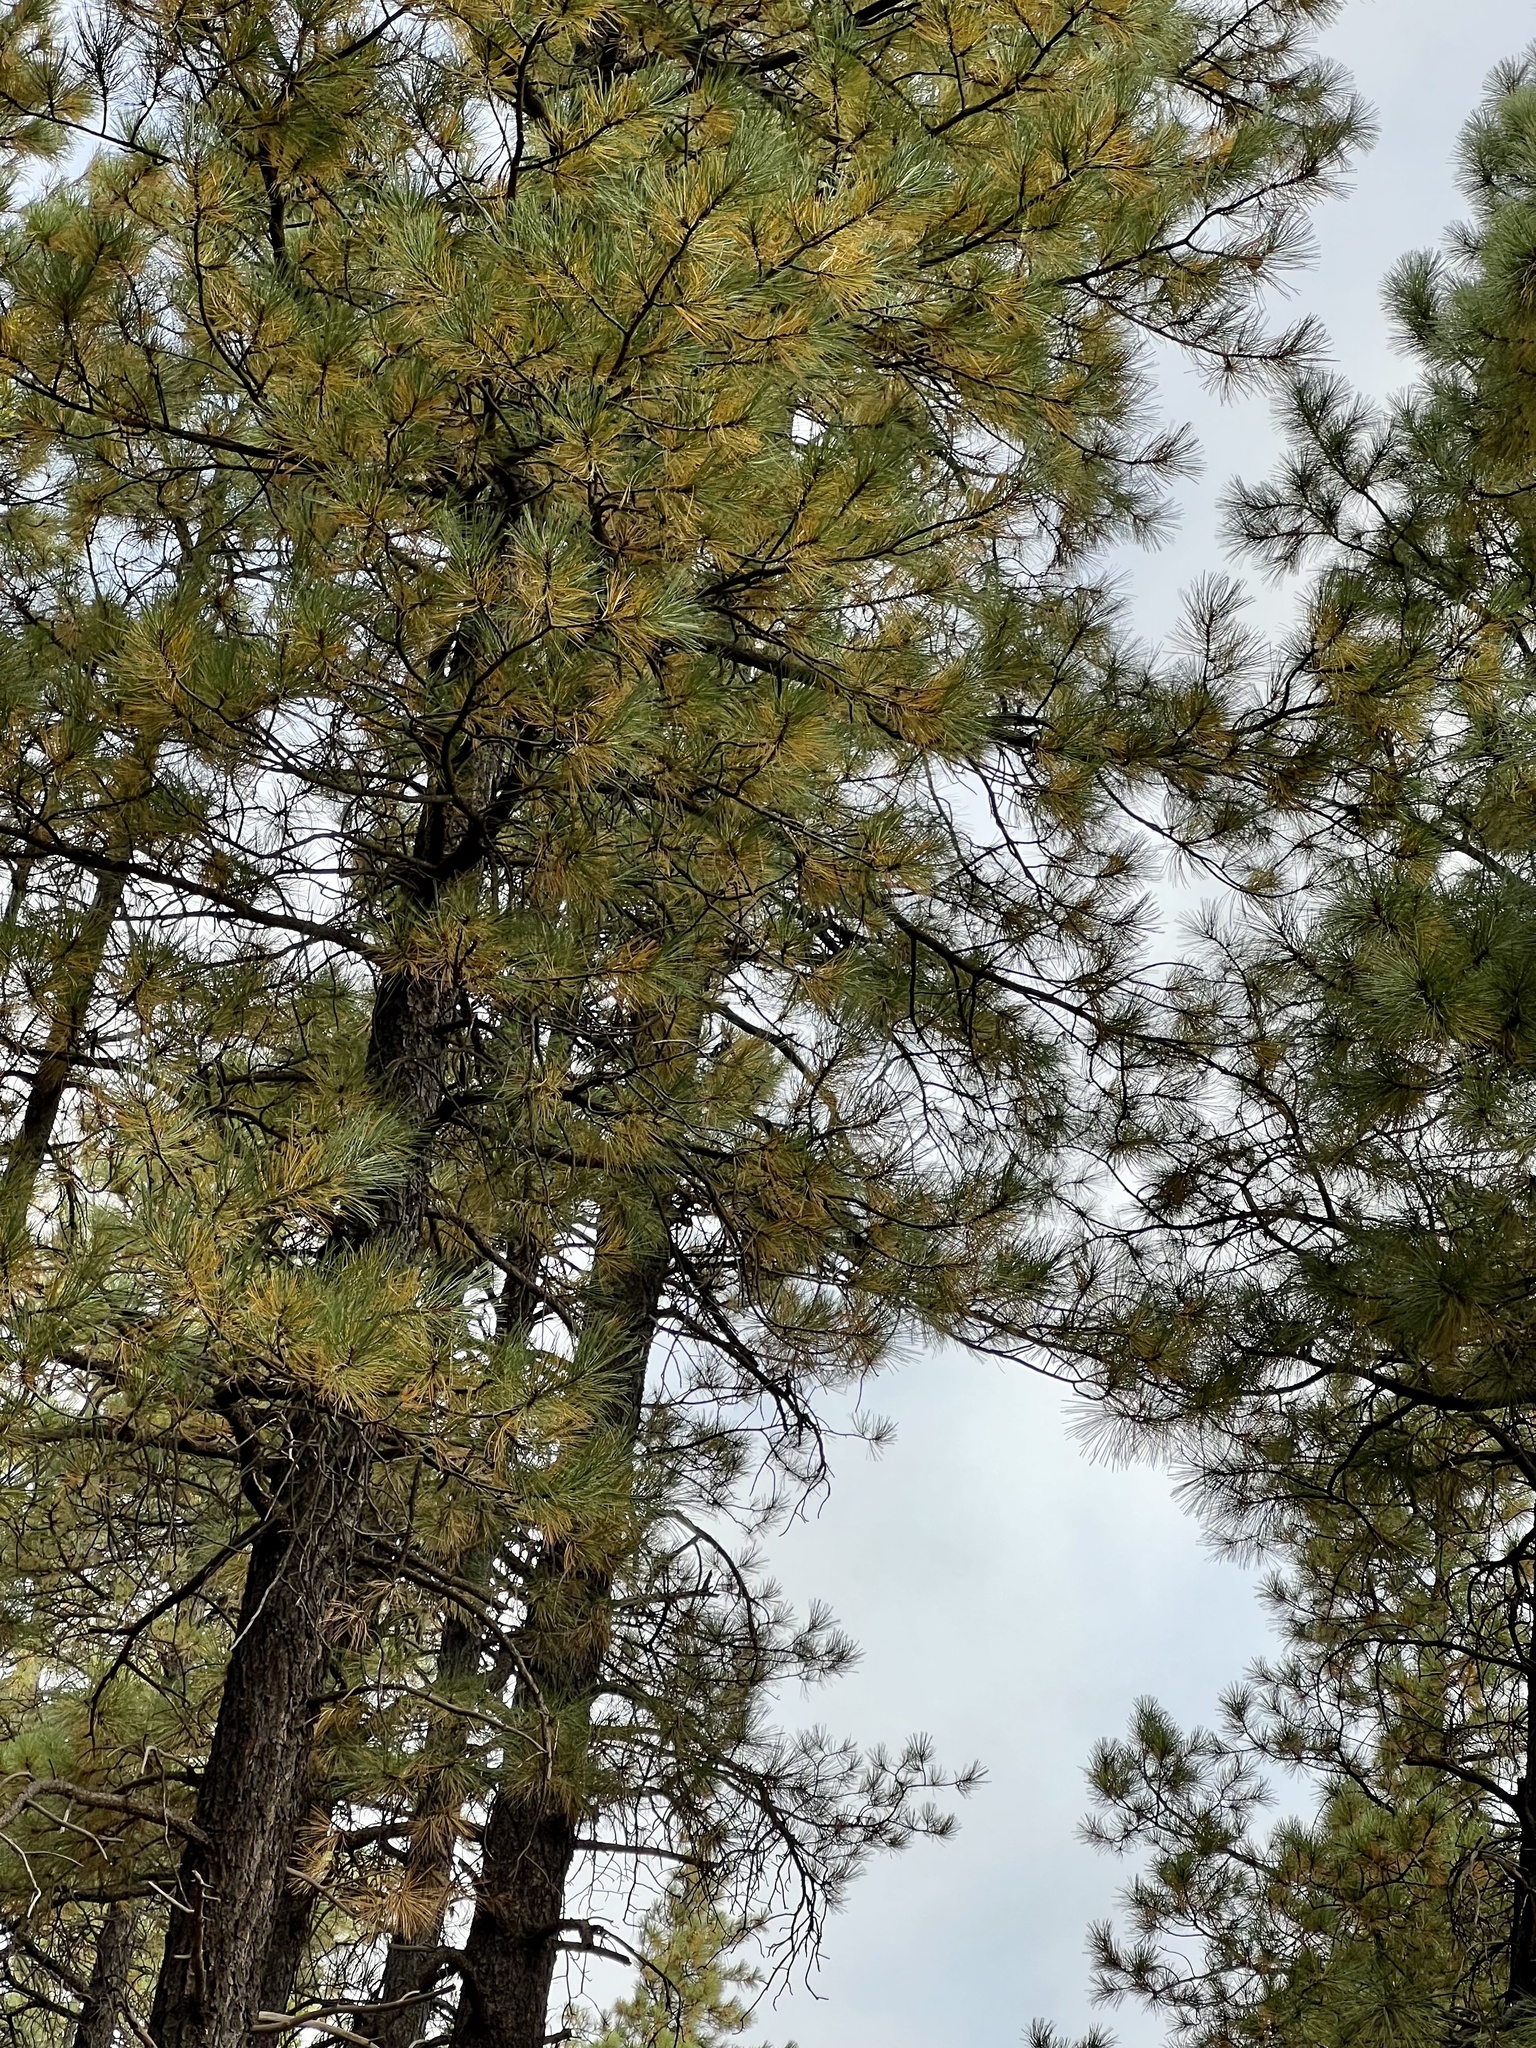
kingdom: Plantae
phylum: Tracheophyta
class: Pinopsida
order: Pinales
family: Pinaceae
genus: Pinus
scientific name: Pinus ponderosa
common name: Western yellow-pine
